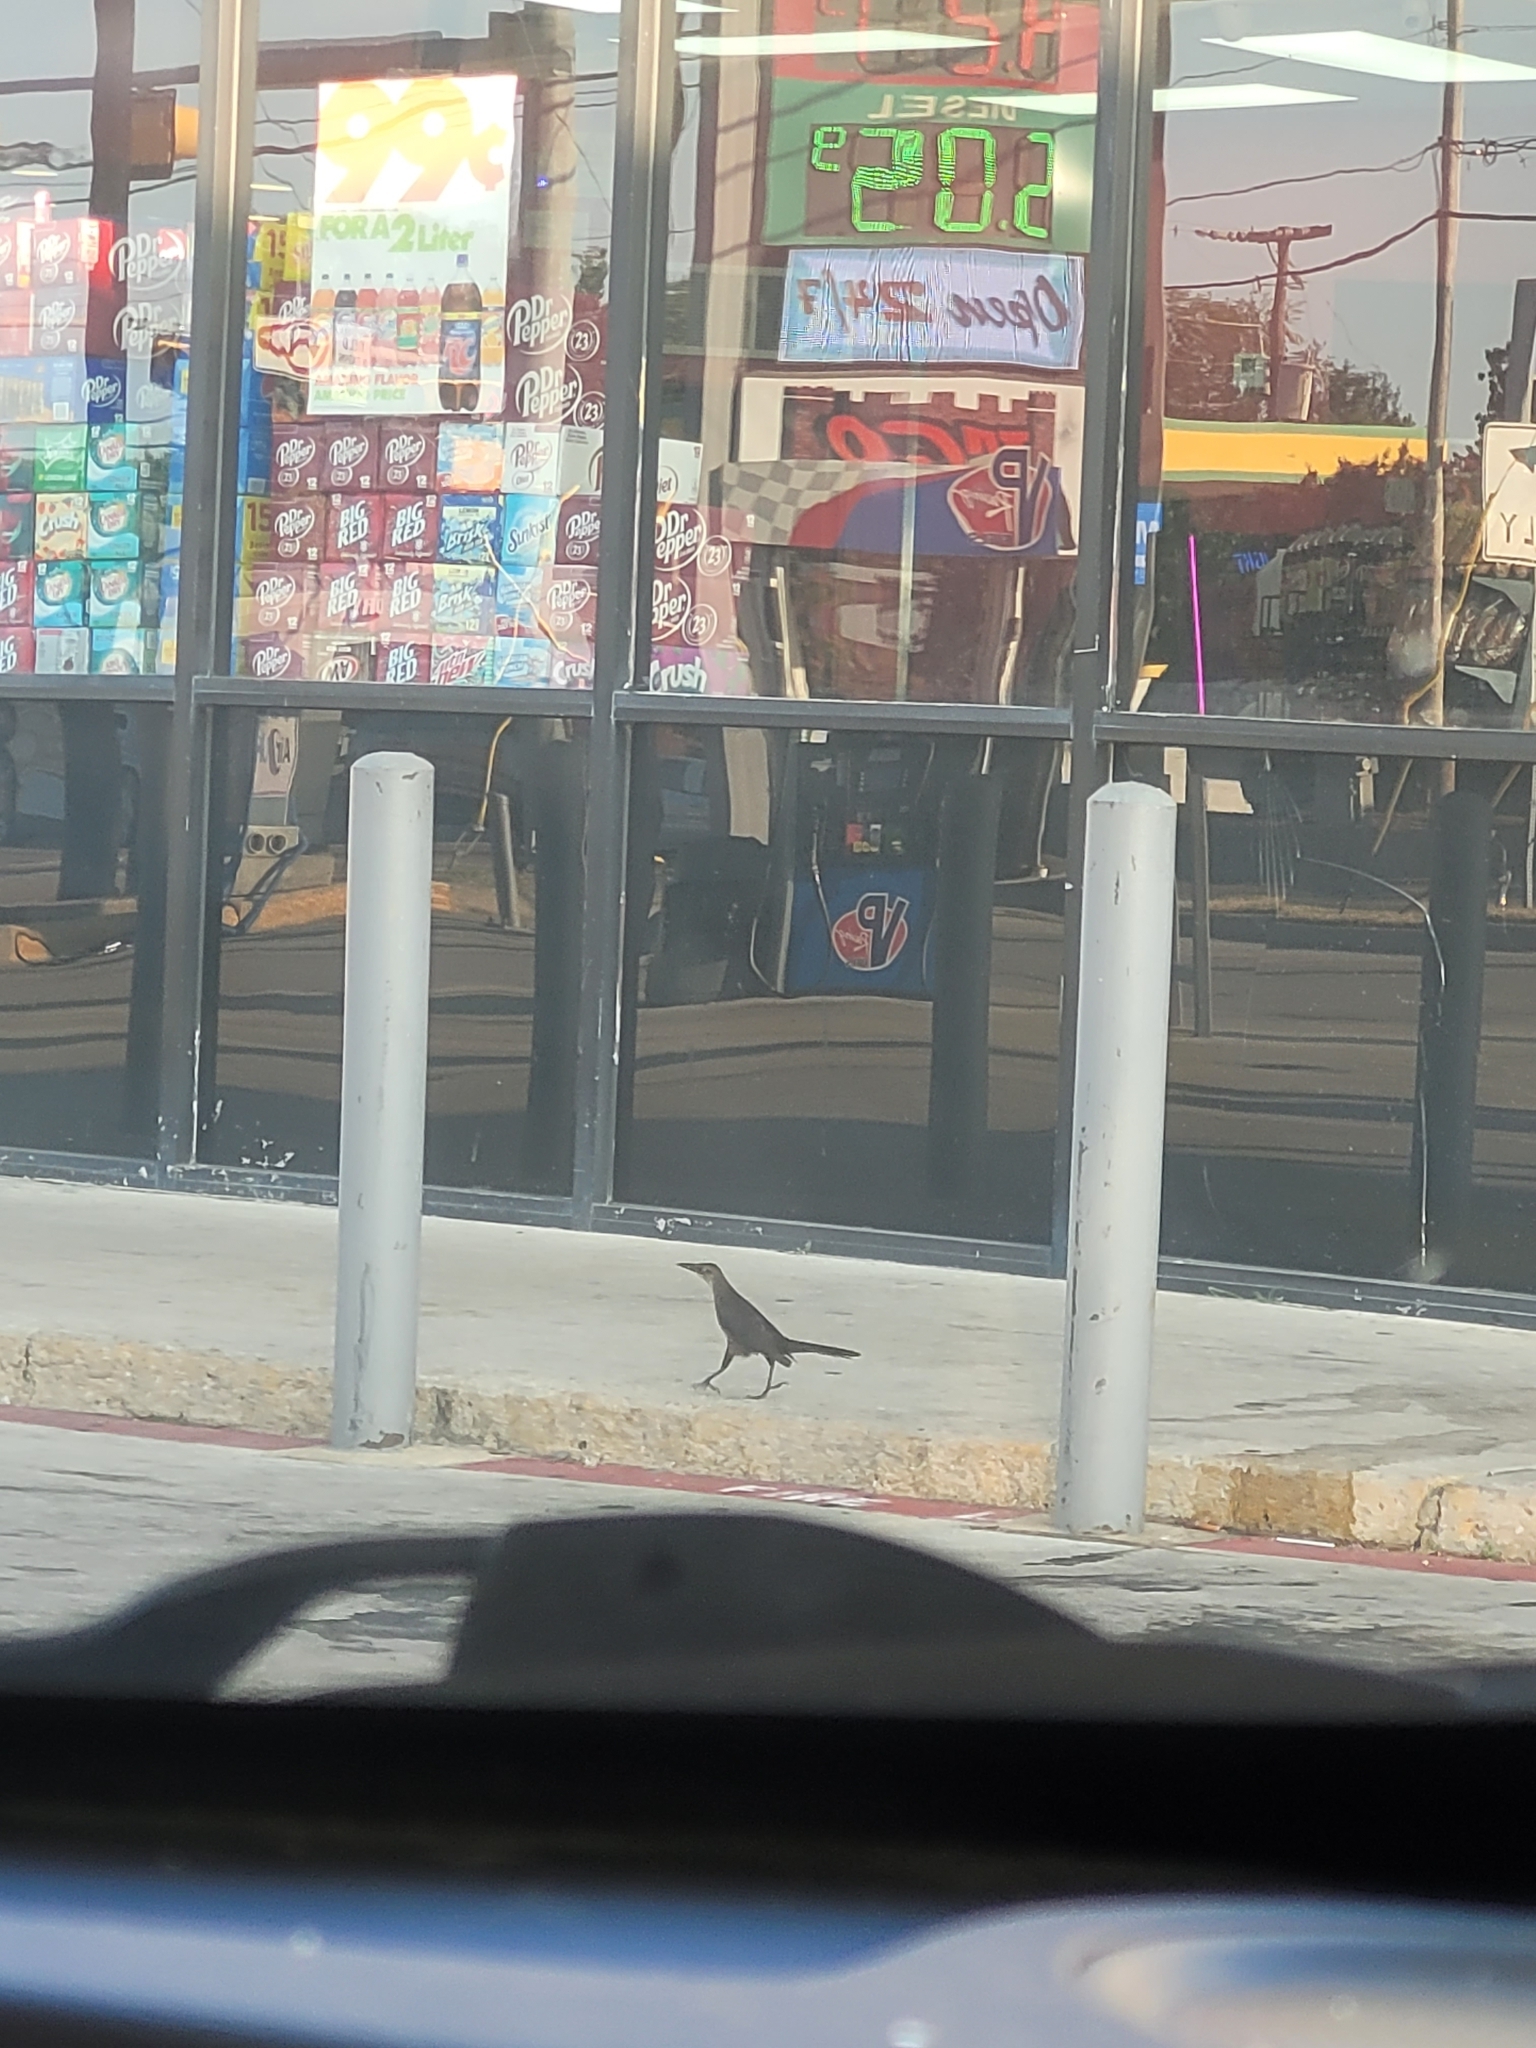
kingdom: Animalia
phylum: Chordata
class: Aves
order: Passeriformes
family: Icteridae
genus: Quiscalus
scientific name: Quiscalus mexicanus
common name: Great-tailed grackle
